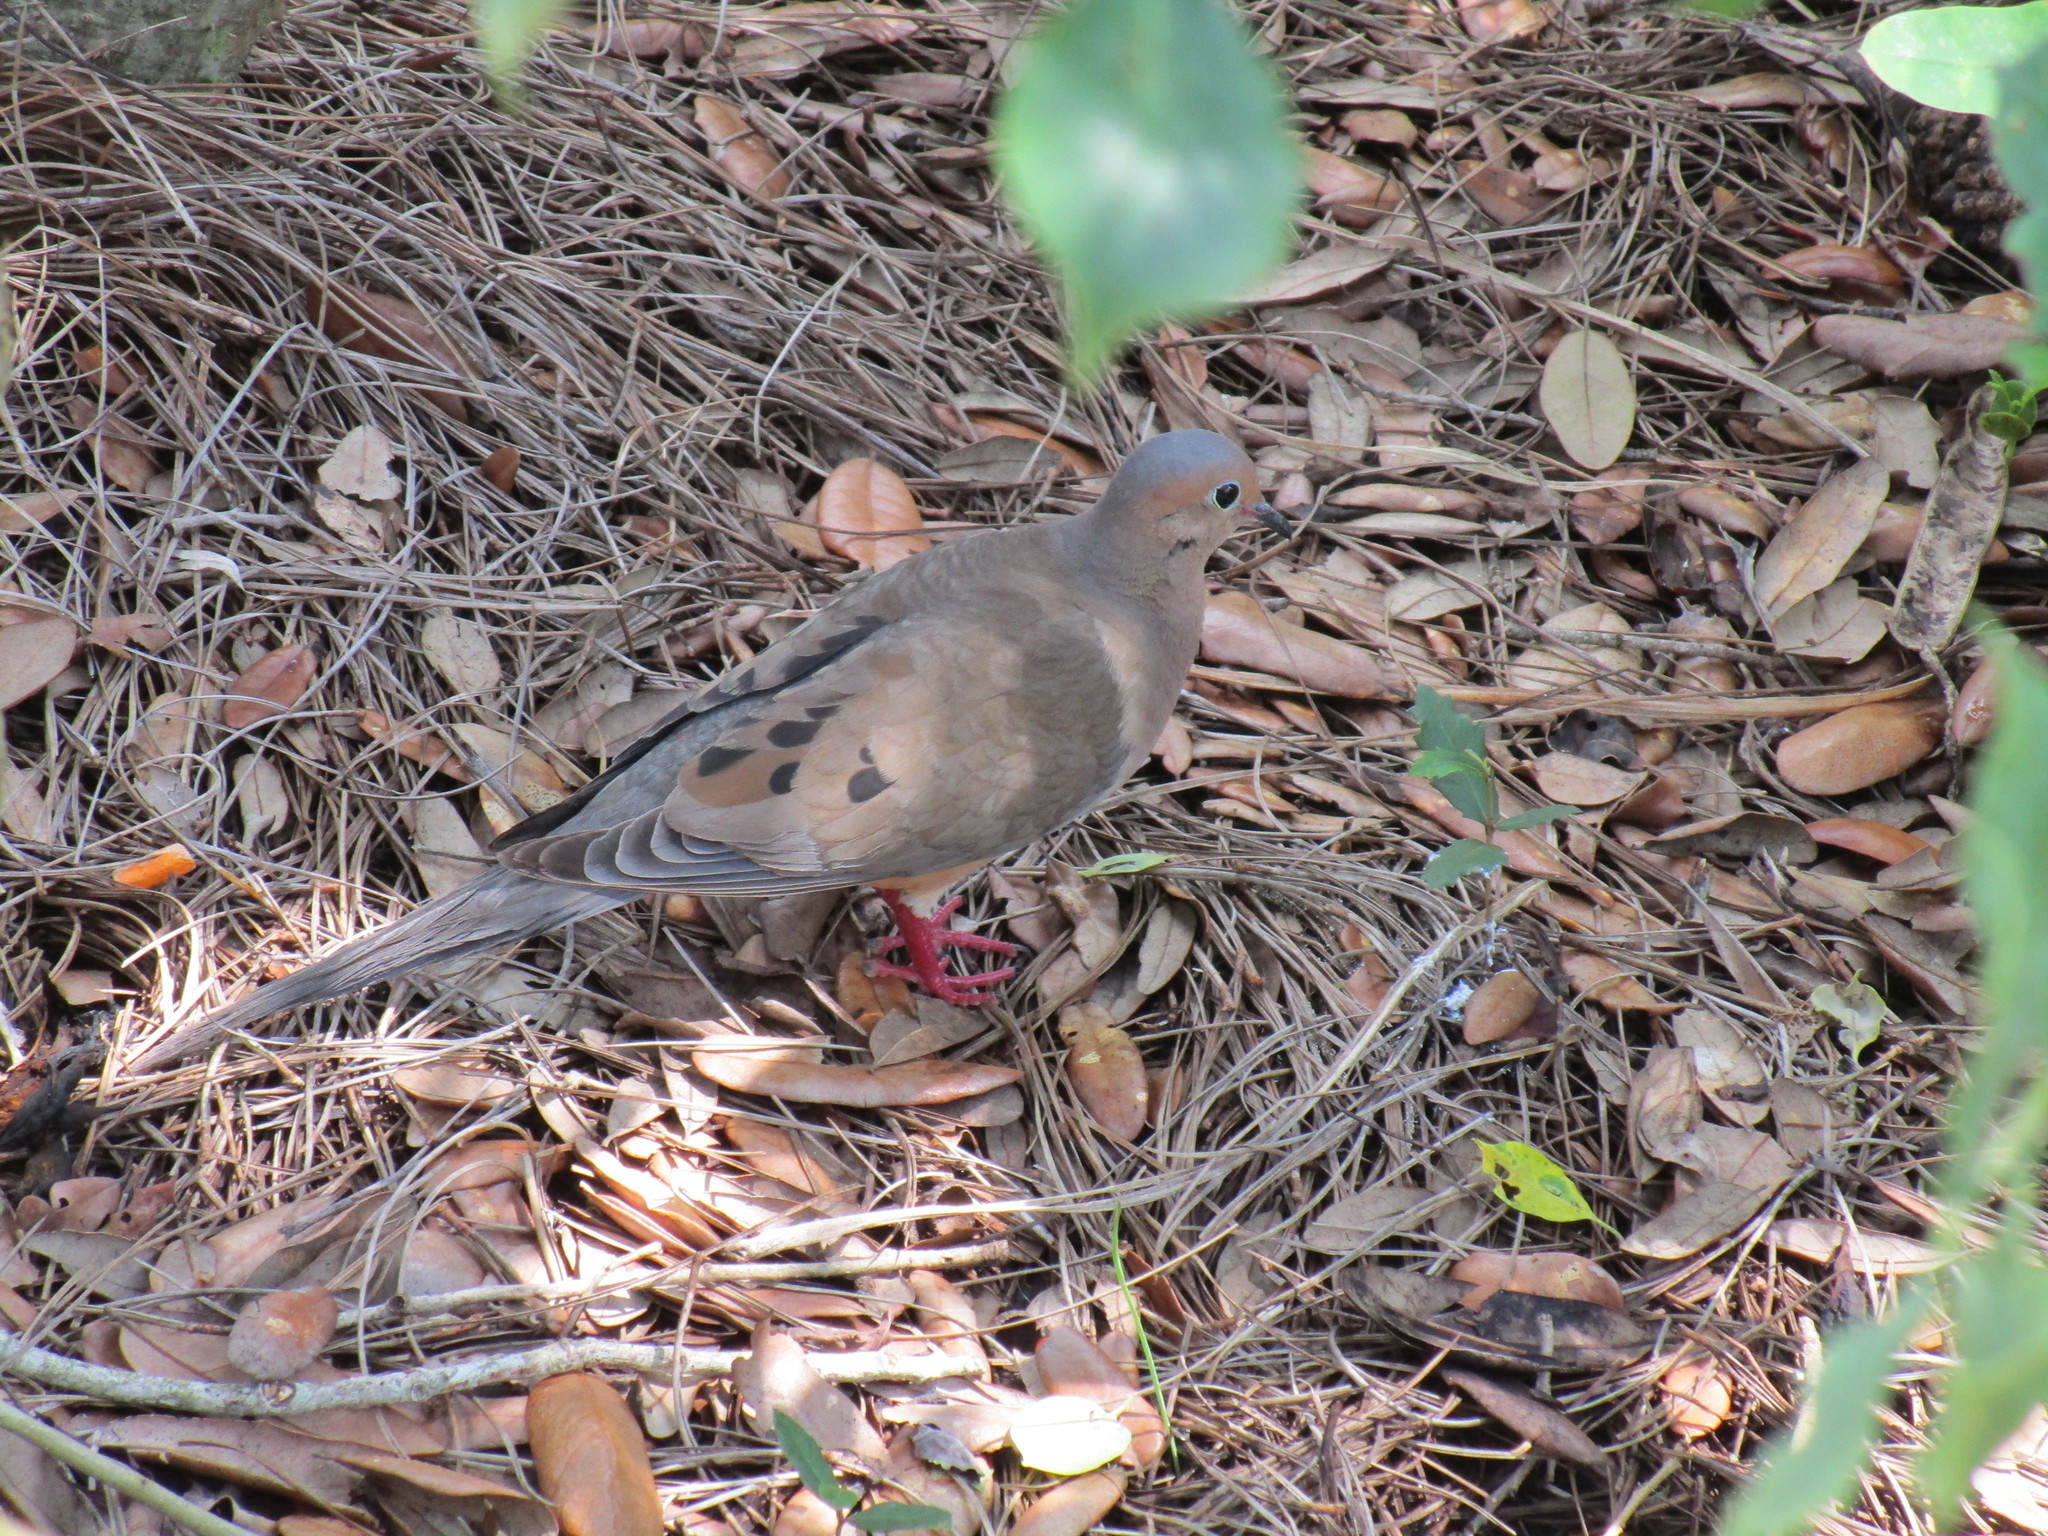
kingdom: Animalia
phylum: Chordata
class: Aves
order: Columbiformes
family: Columbidae
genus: Zenaida
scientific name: Zenaida macroura
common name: Mourning dove
